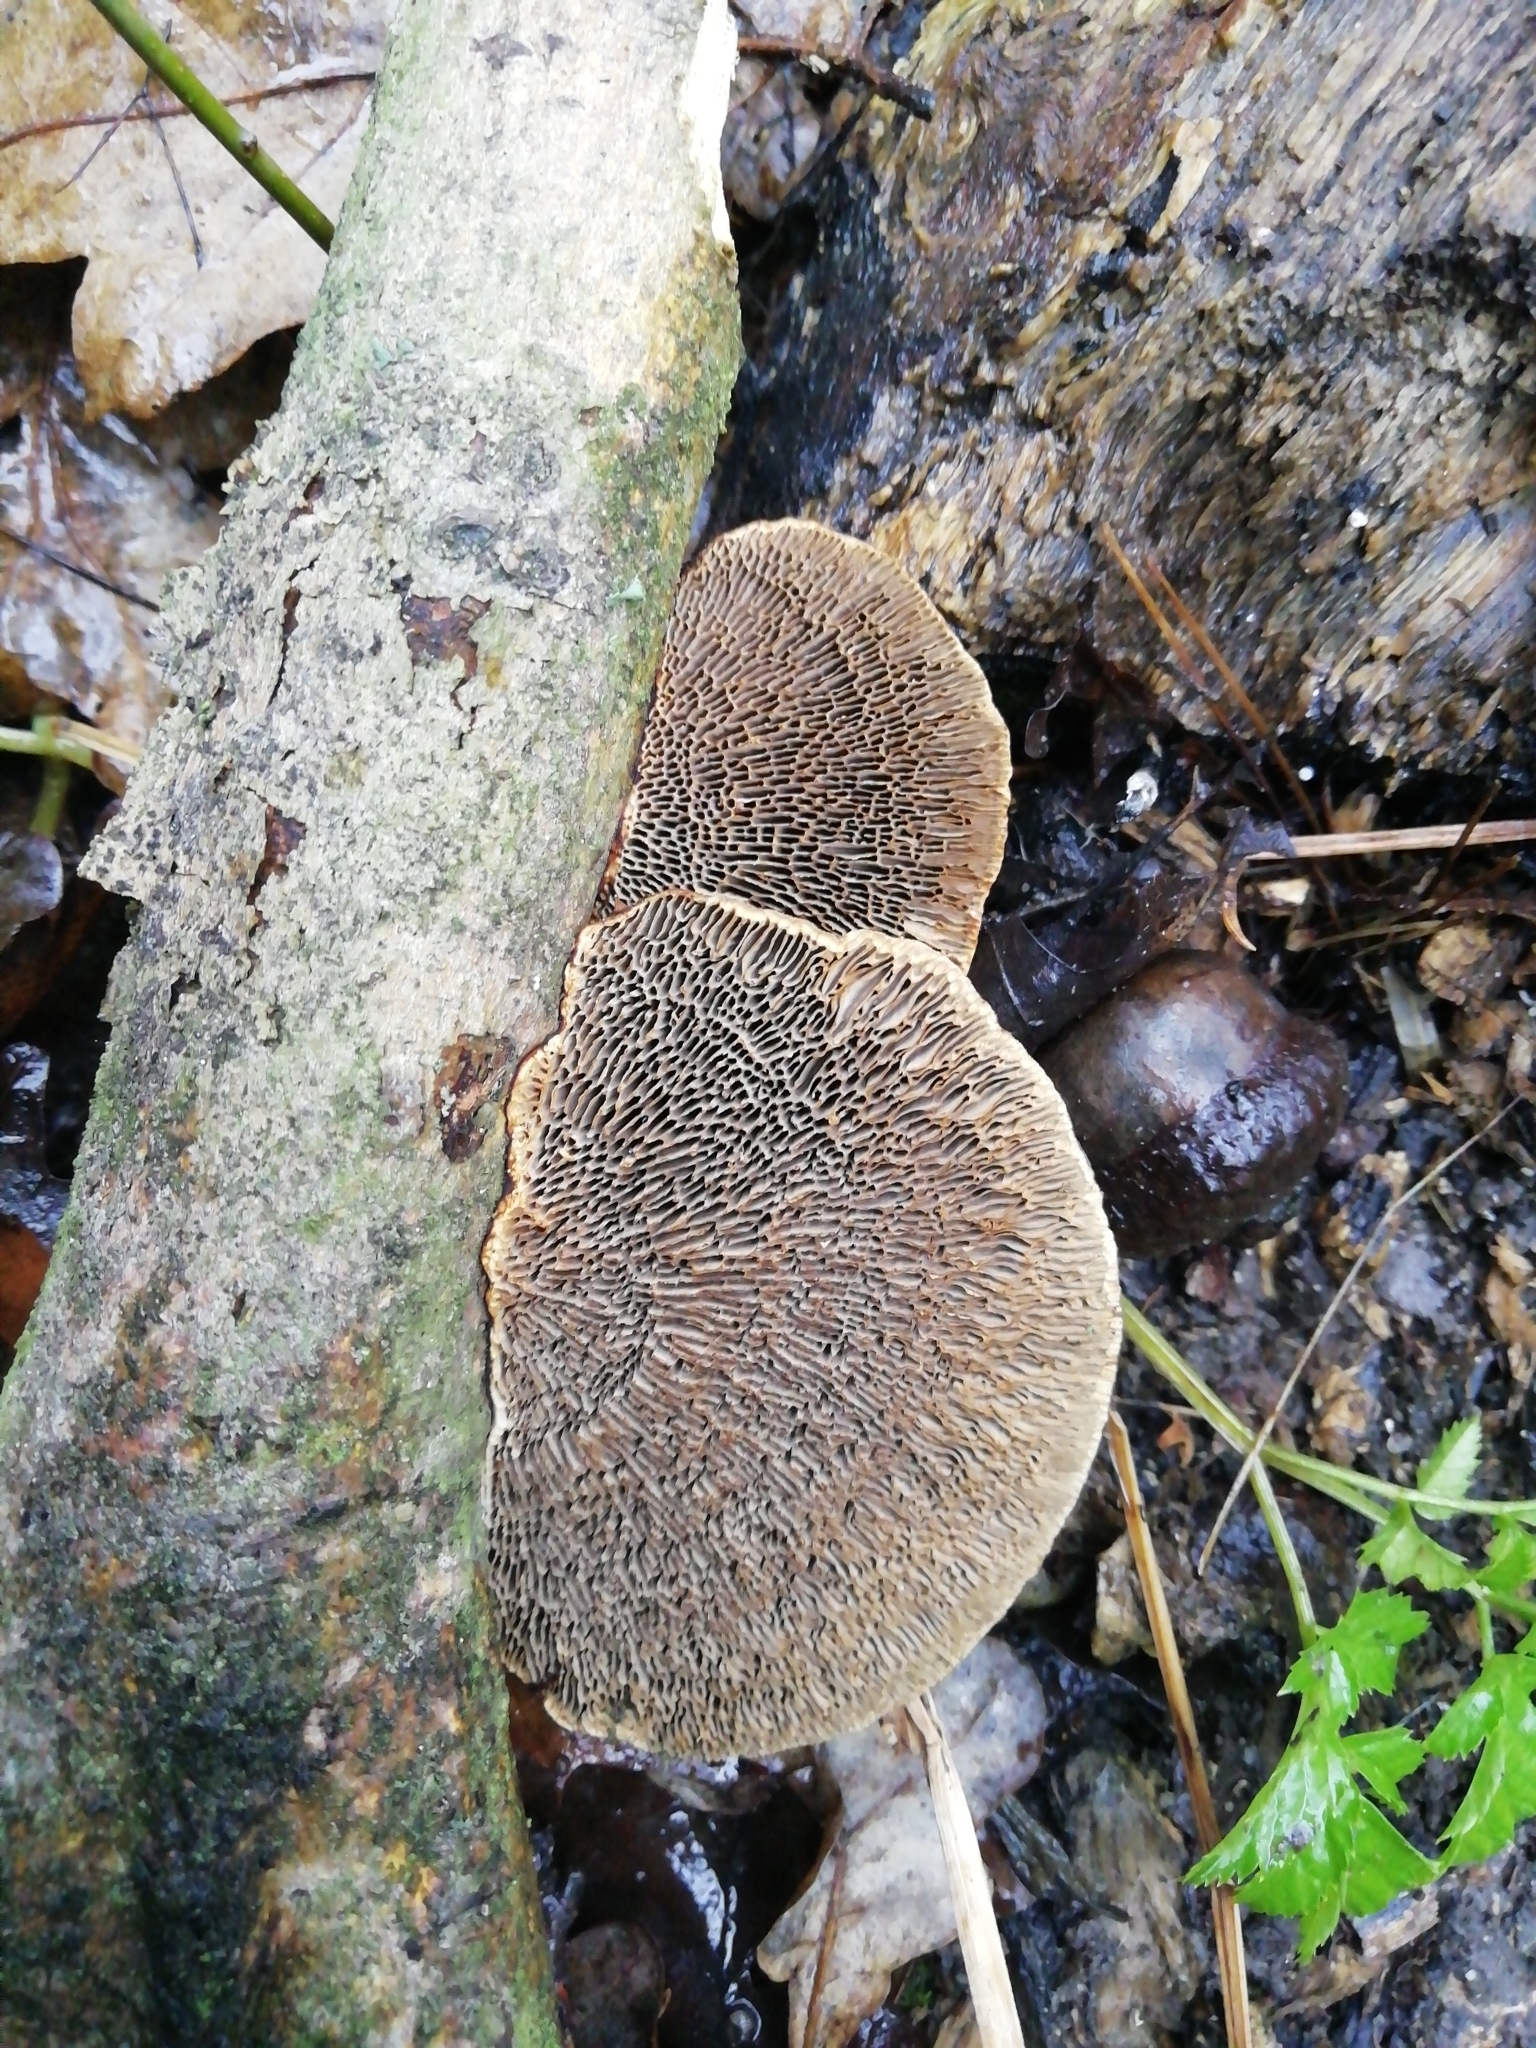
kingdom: Fungi
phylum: Basidiomycota
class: Agaricomycetes
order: Polyporales
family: Polyporaceae
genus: Daedaleopsis
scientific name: Daedaleopsis confragosa
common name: Blushing bracket
